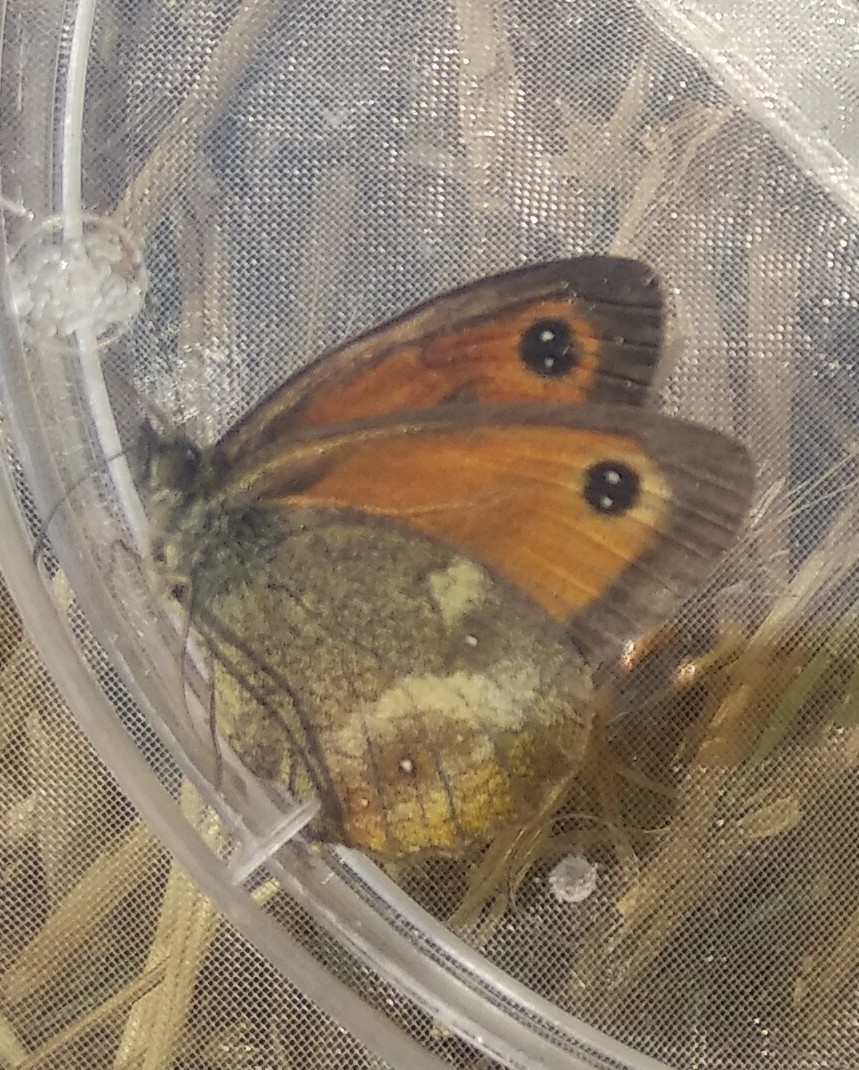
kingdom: Animalia
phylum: Arthropoda
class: Insecta
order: Lepidoptera
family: Nymphalidae
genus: Pyronia
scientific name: Pyronia tithonus
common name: Gatekeeper
